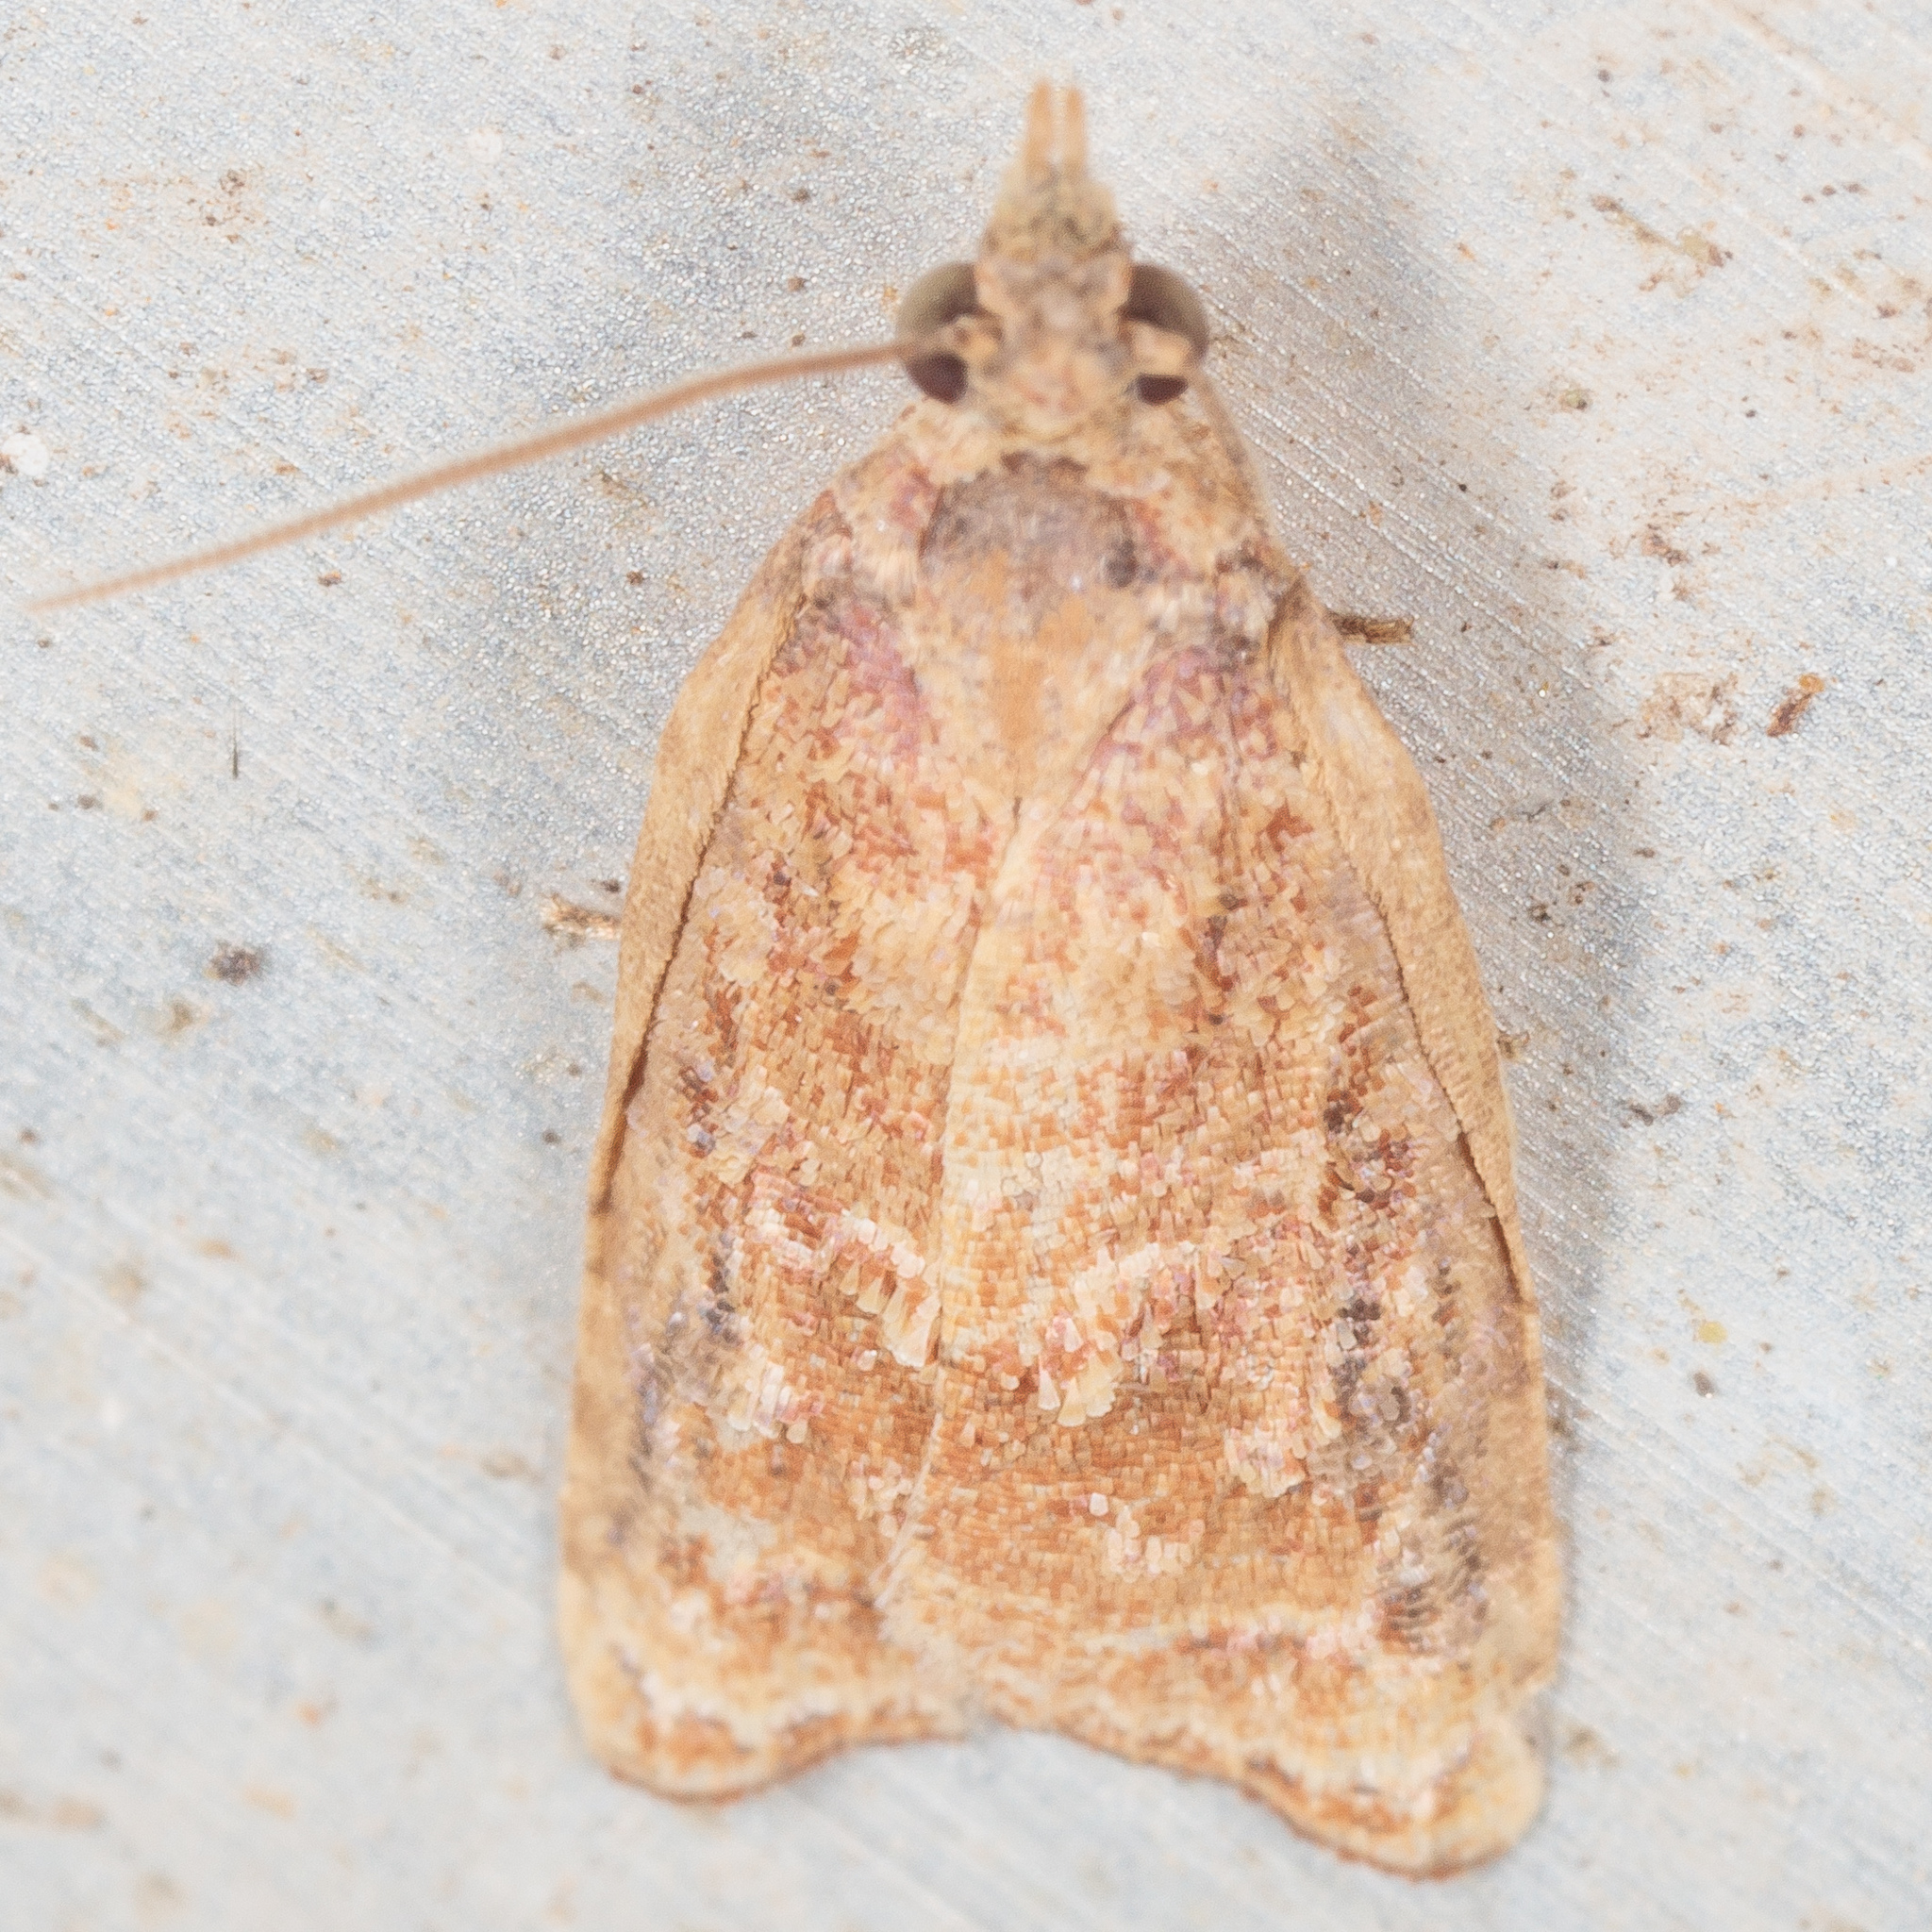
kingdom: Animalia
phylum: Arthropoda
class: Insecta
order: Lepidoptera
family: Tortricidae
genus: Platynota
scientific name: Platynota rostrana
